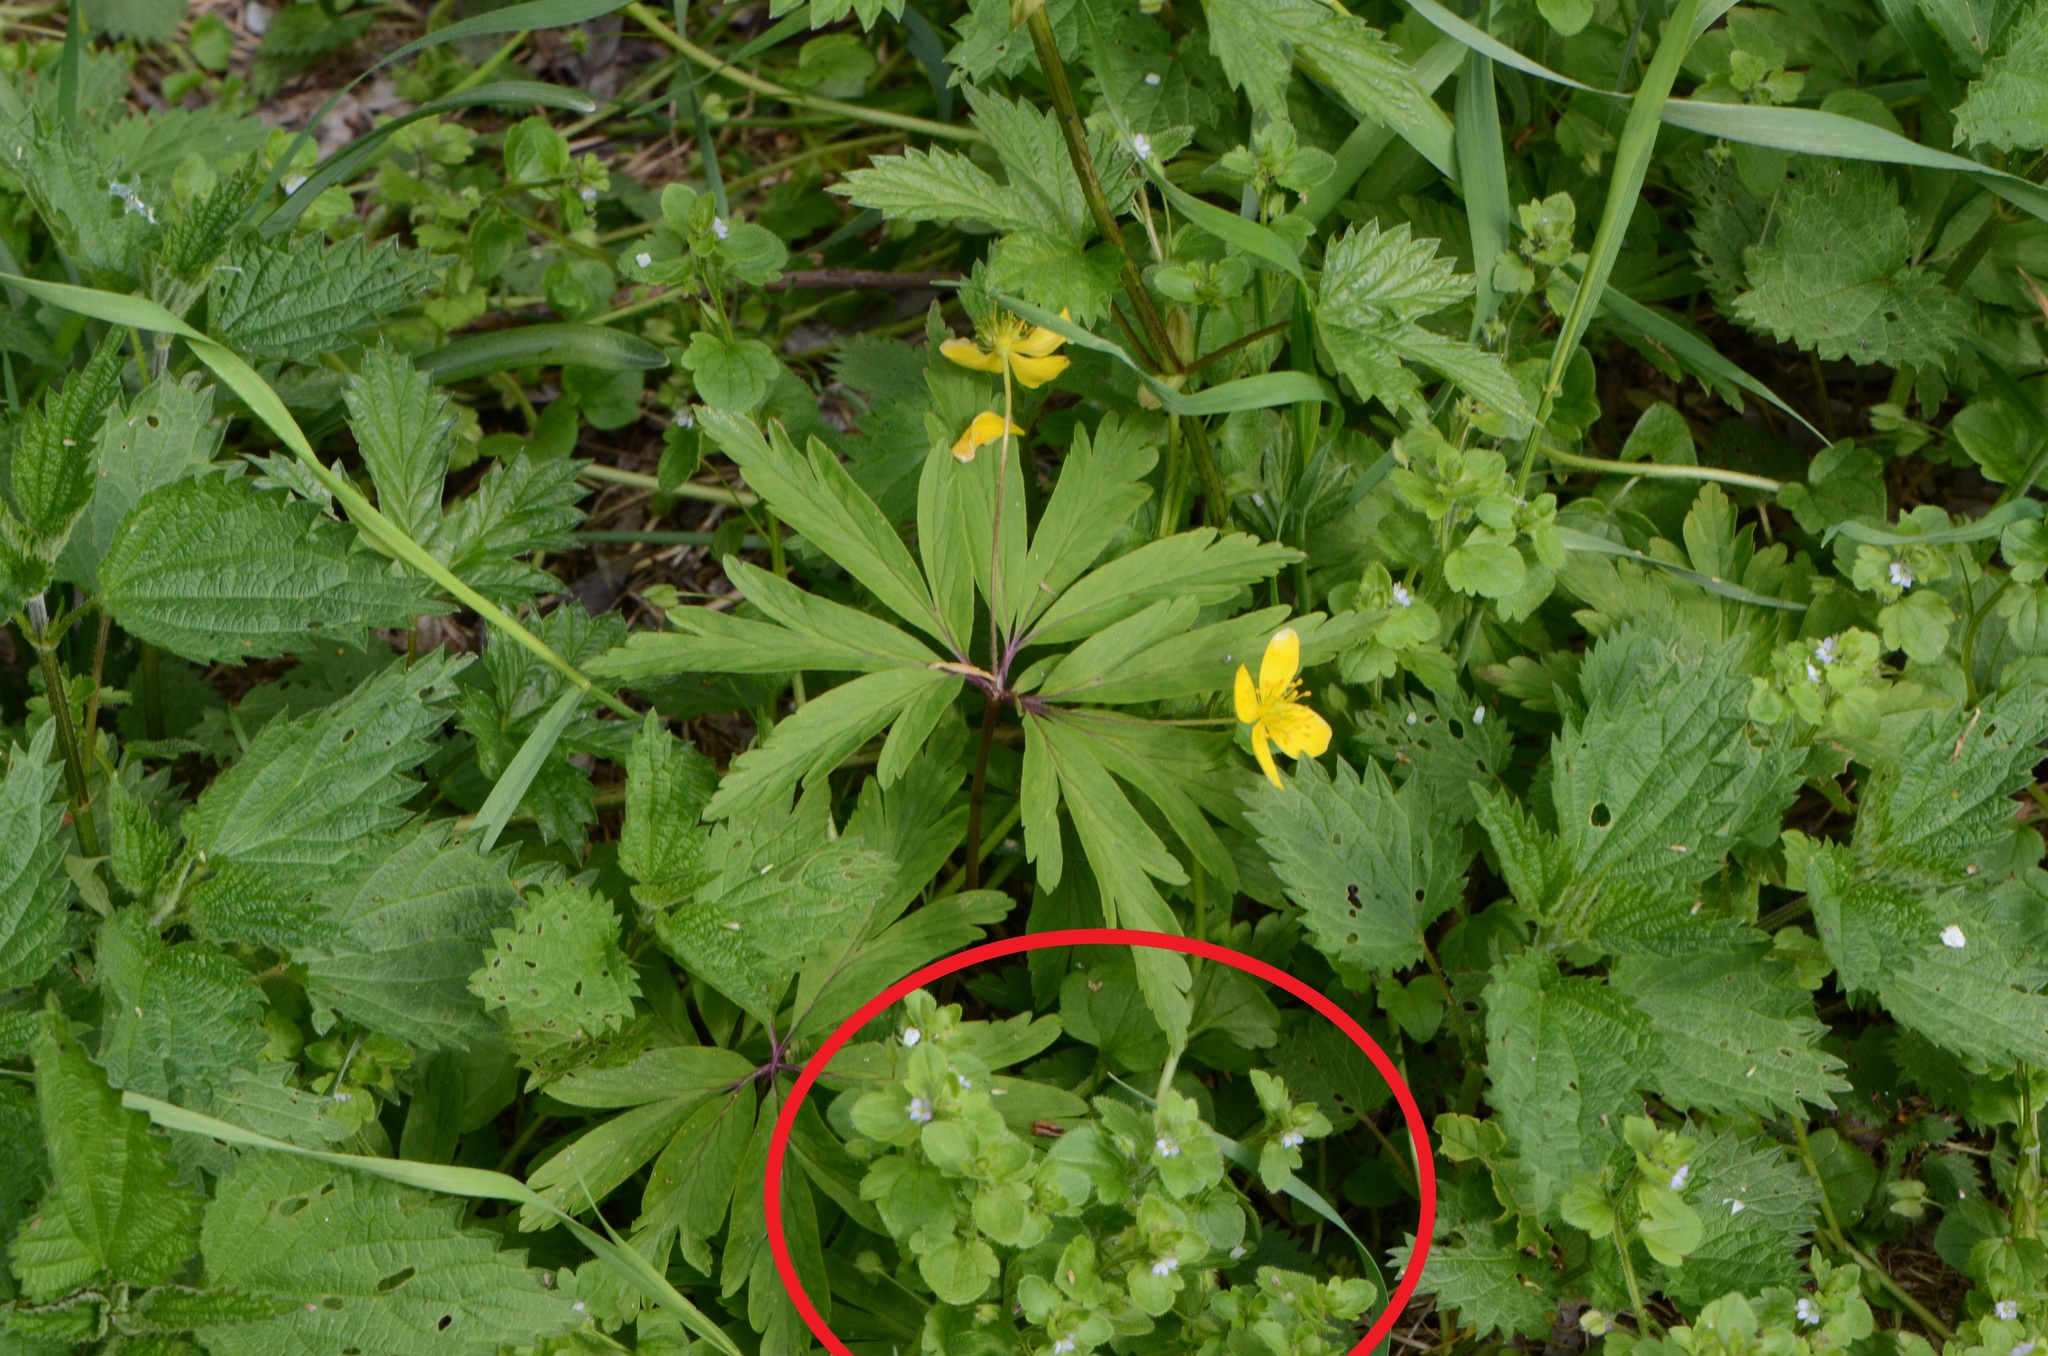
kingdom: Plantae
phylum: Tracheophyta
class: Magnoliopsida
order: Lamiales
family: Plantaginaceae
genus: Veronica
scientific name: Veronica sublobata
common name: False ivy-leaved speedwell
